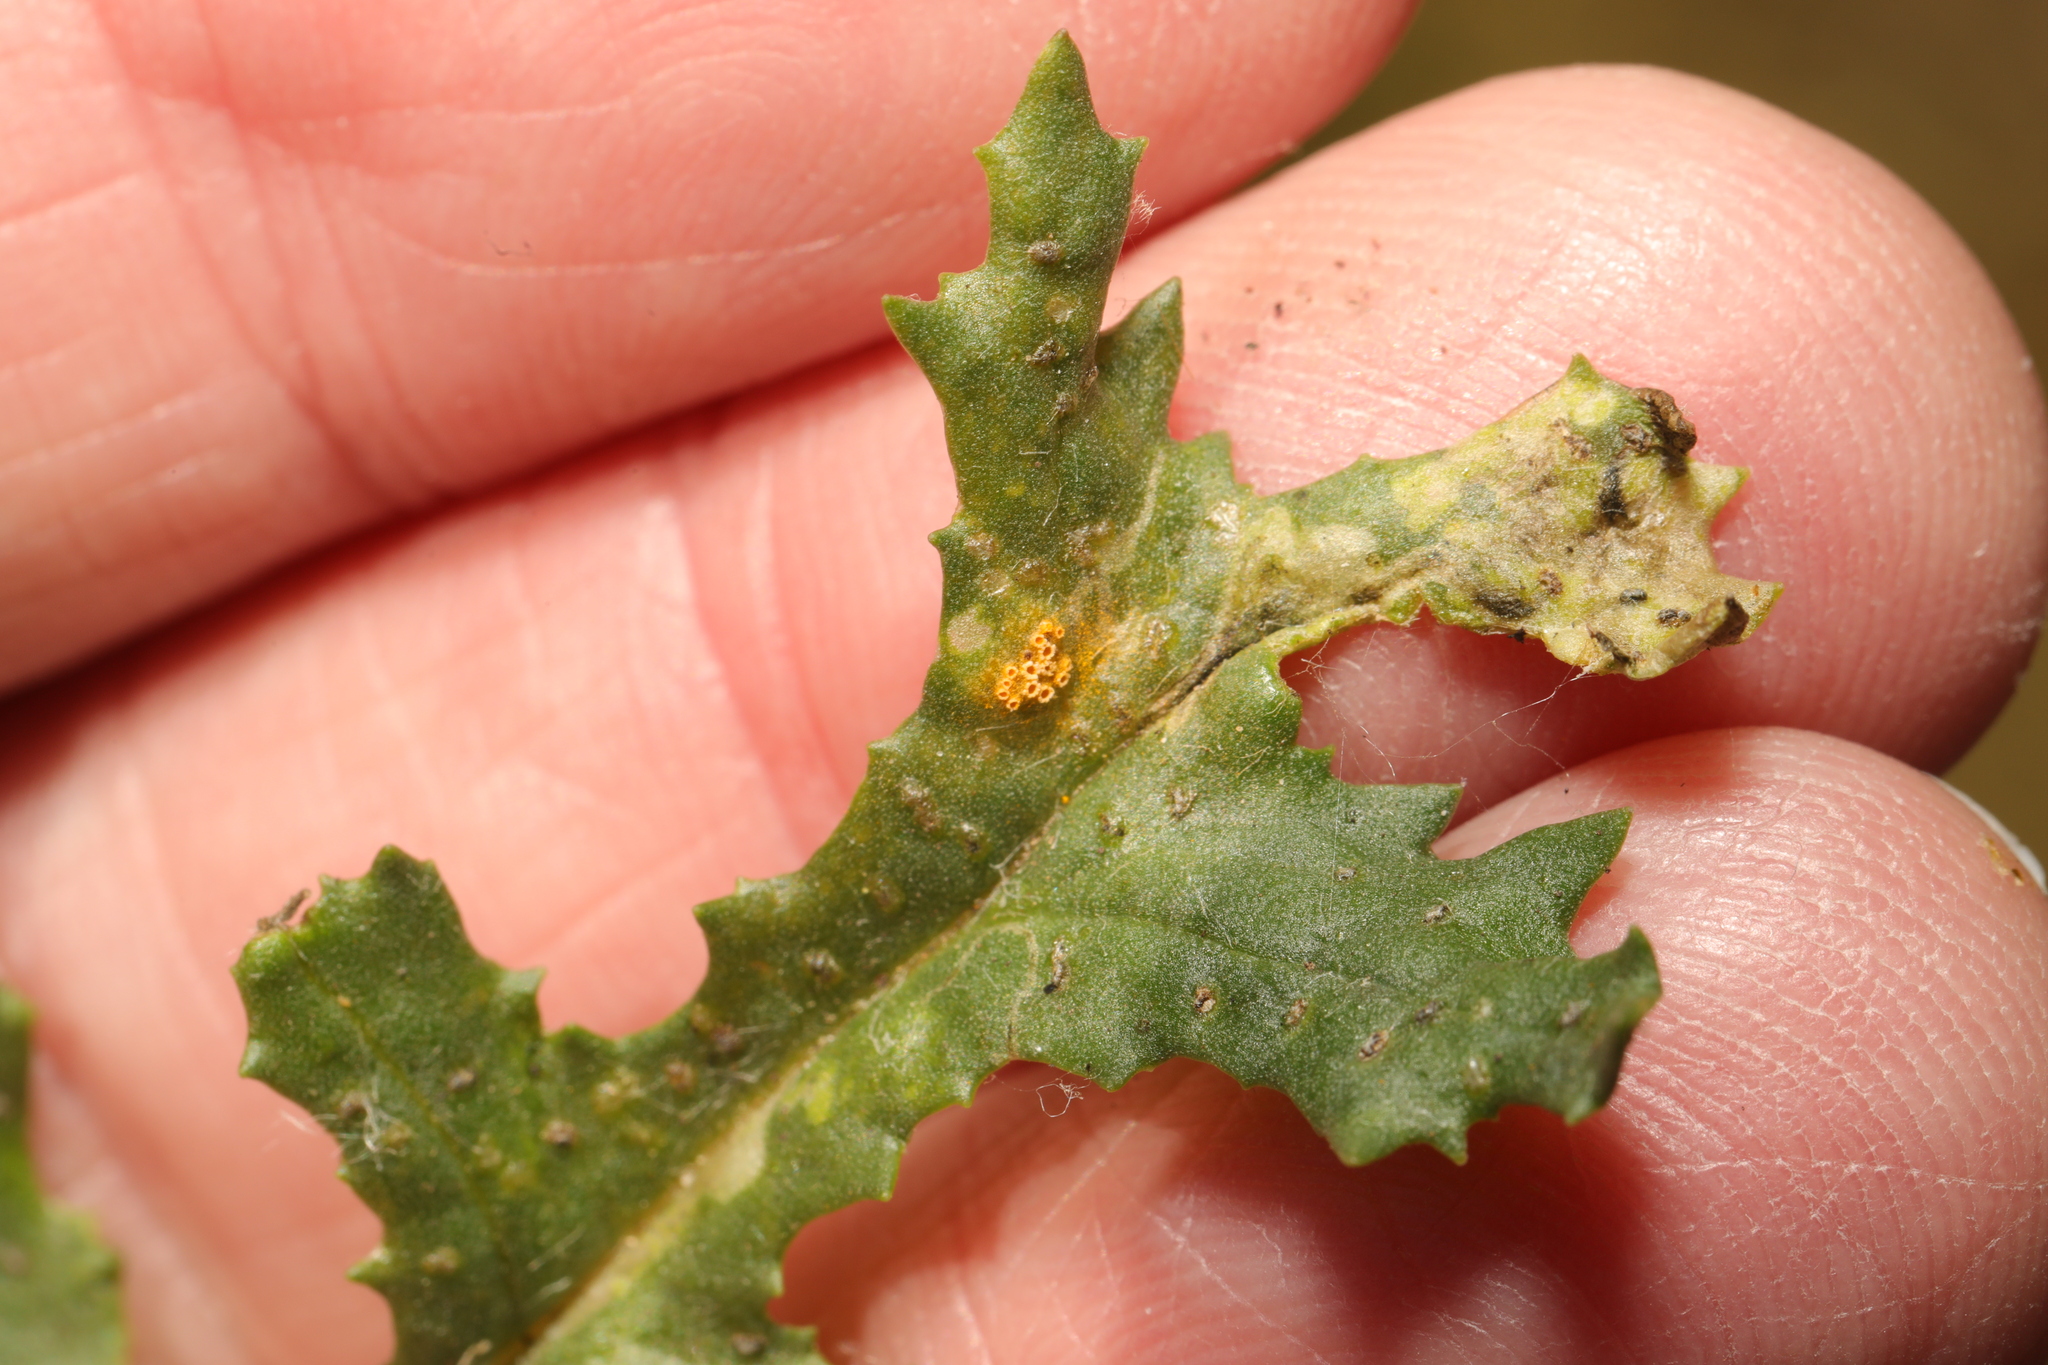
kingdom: Fungi
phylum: Basidiomycota
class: Pucciniomycetes
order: Pucciniales
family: Pucciniaceae
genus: Puccinia
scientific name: Puccinia lagenophorae
